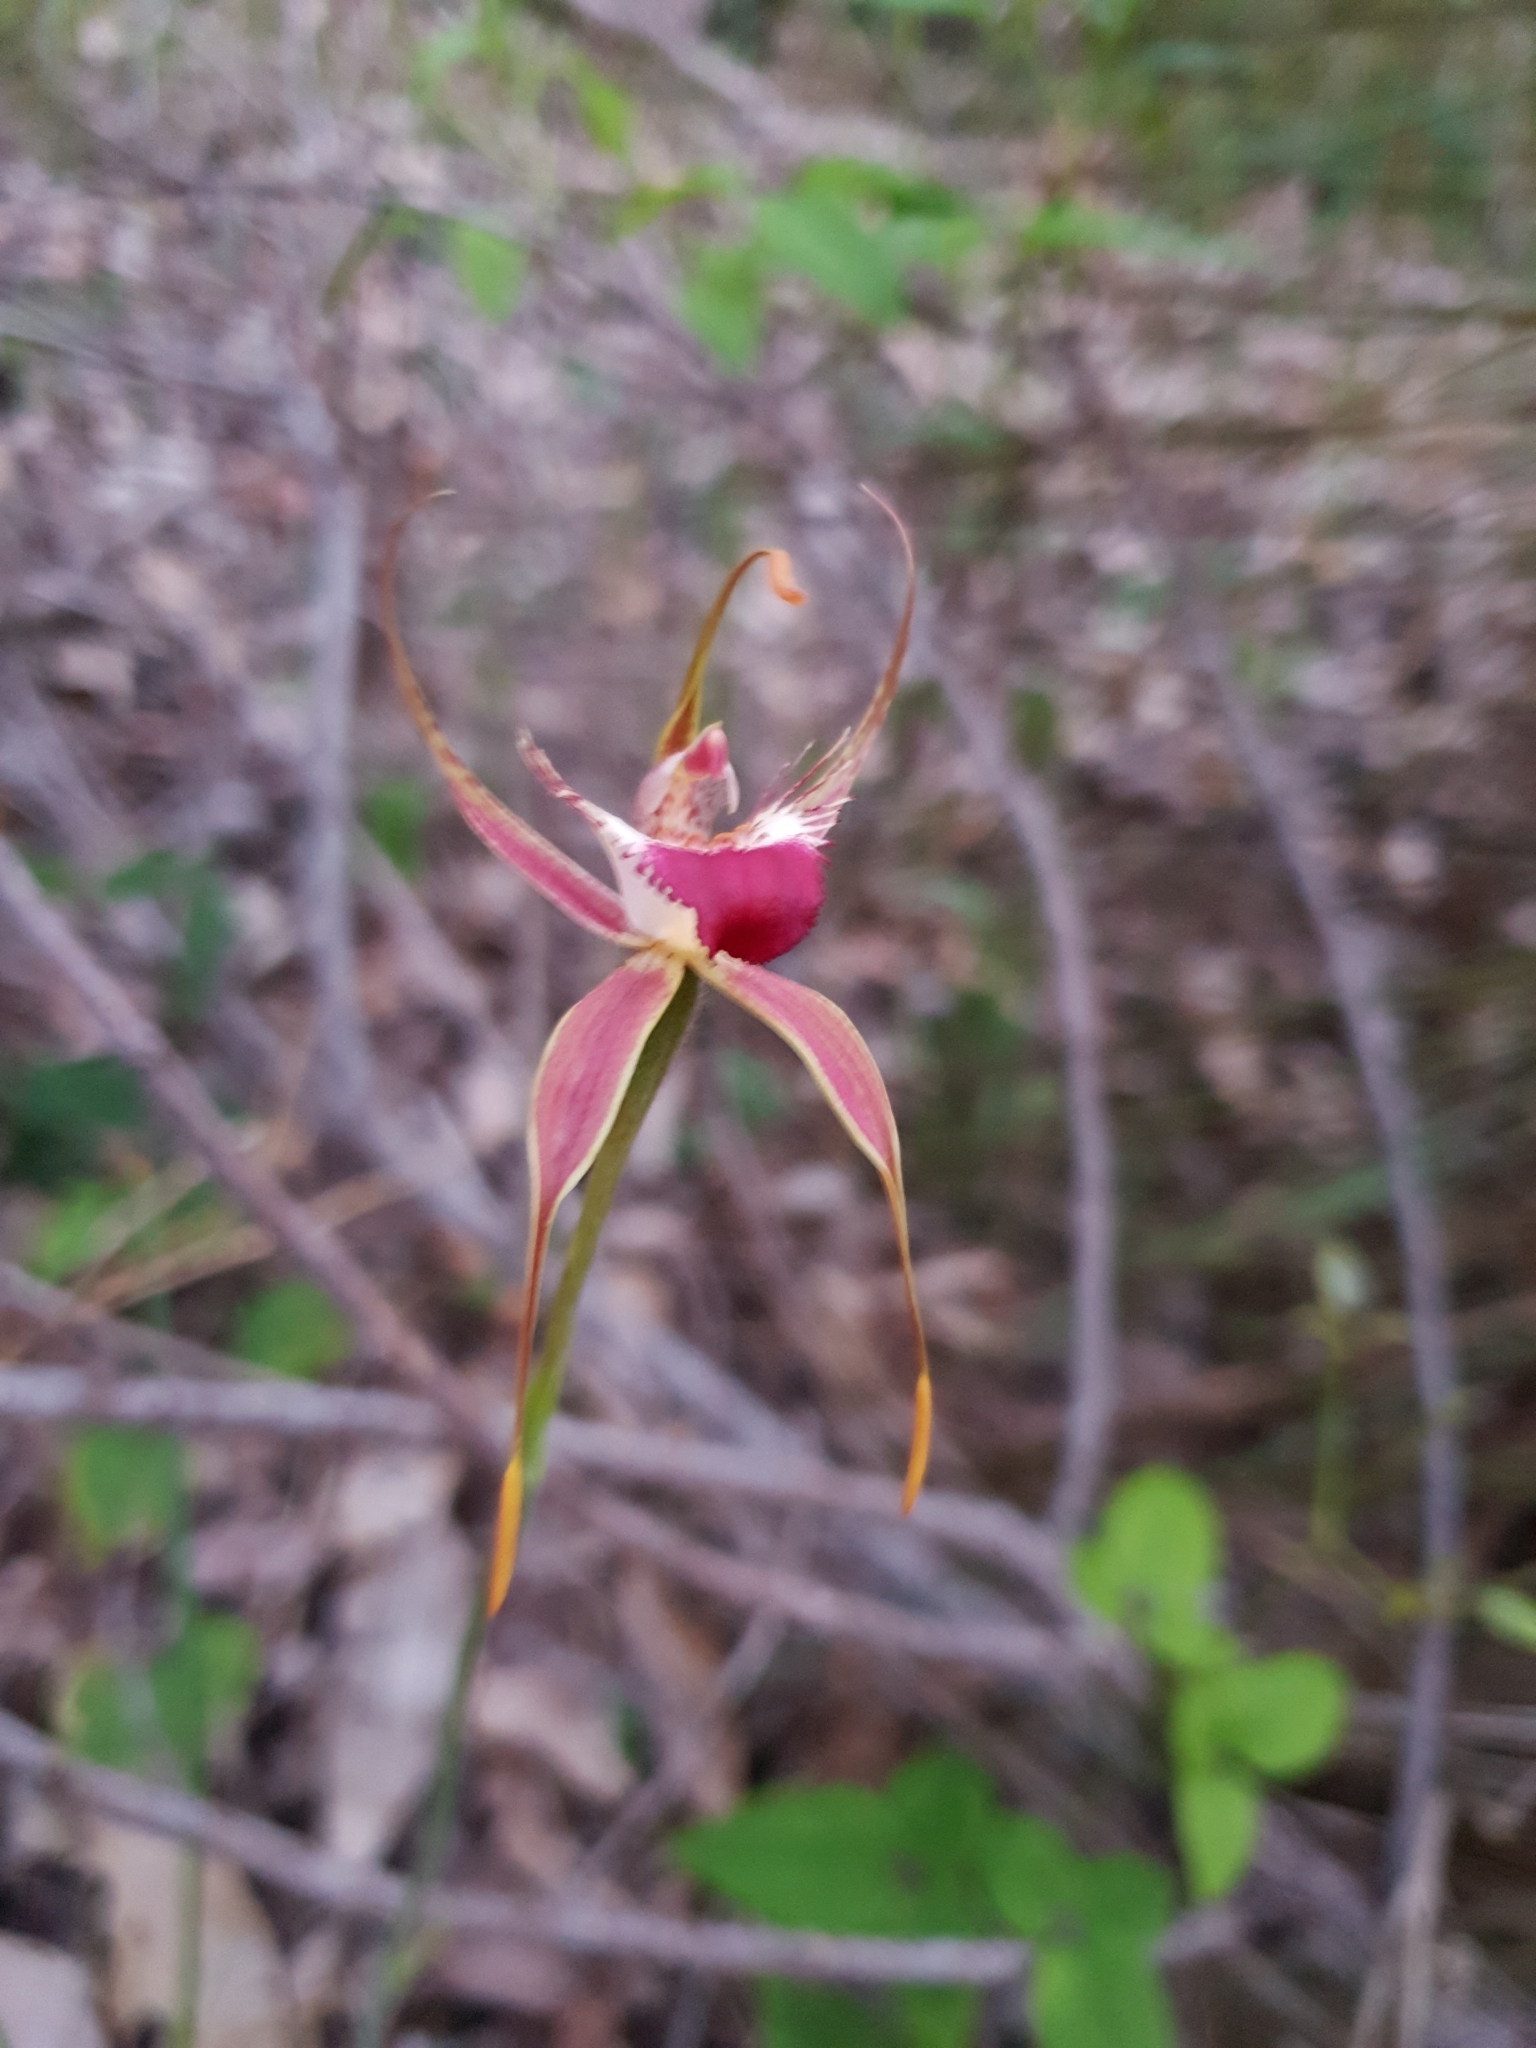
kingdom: Plantae
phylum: Tracheophyta
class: Liliopsida
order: Asparagales
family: Orchidaceae
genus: Caladenia
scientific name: Caladenia ferruginea
